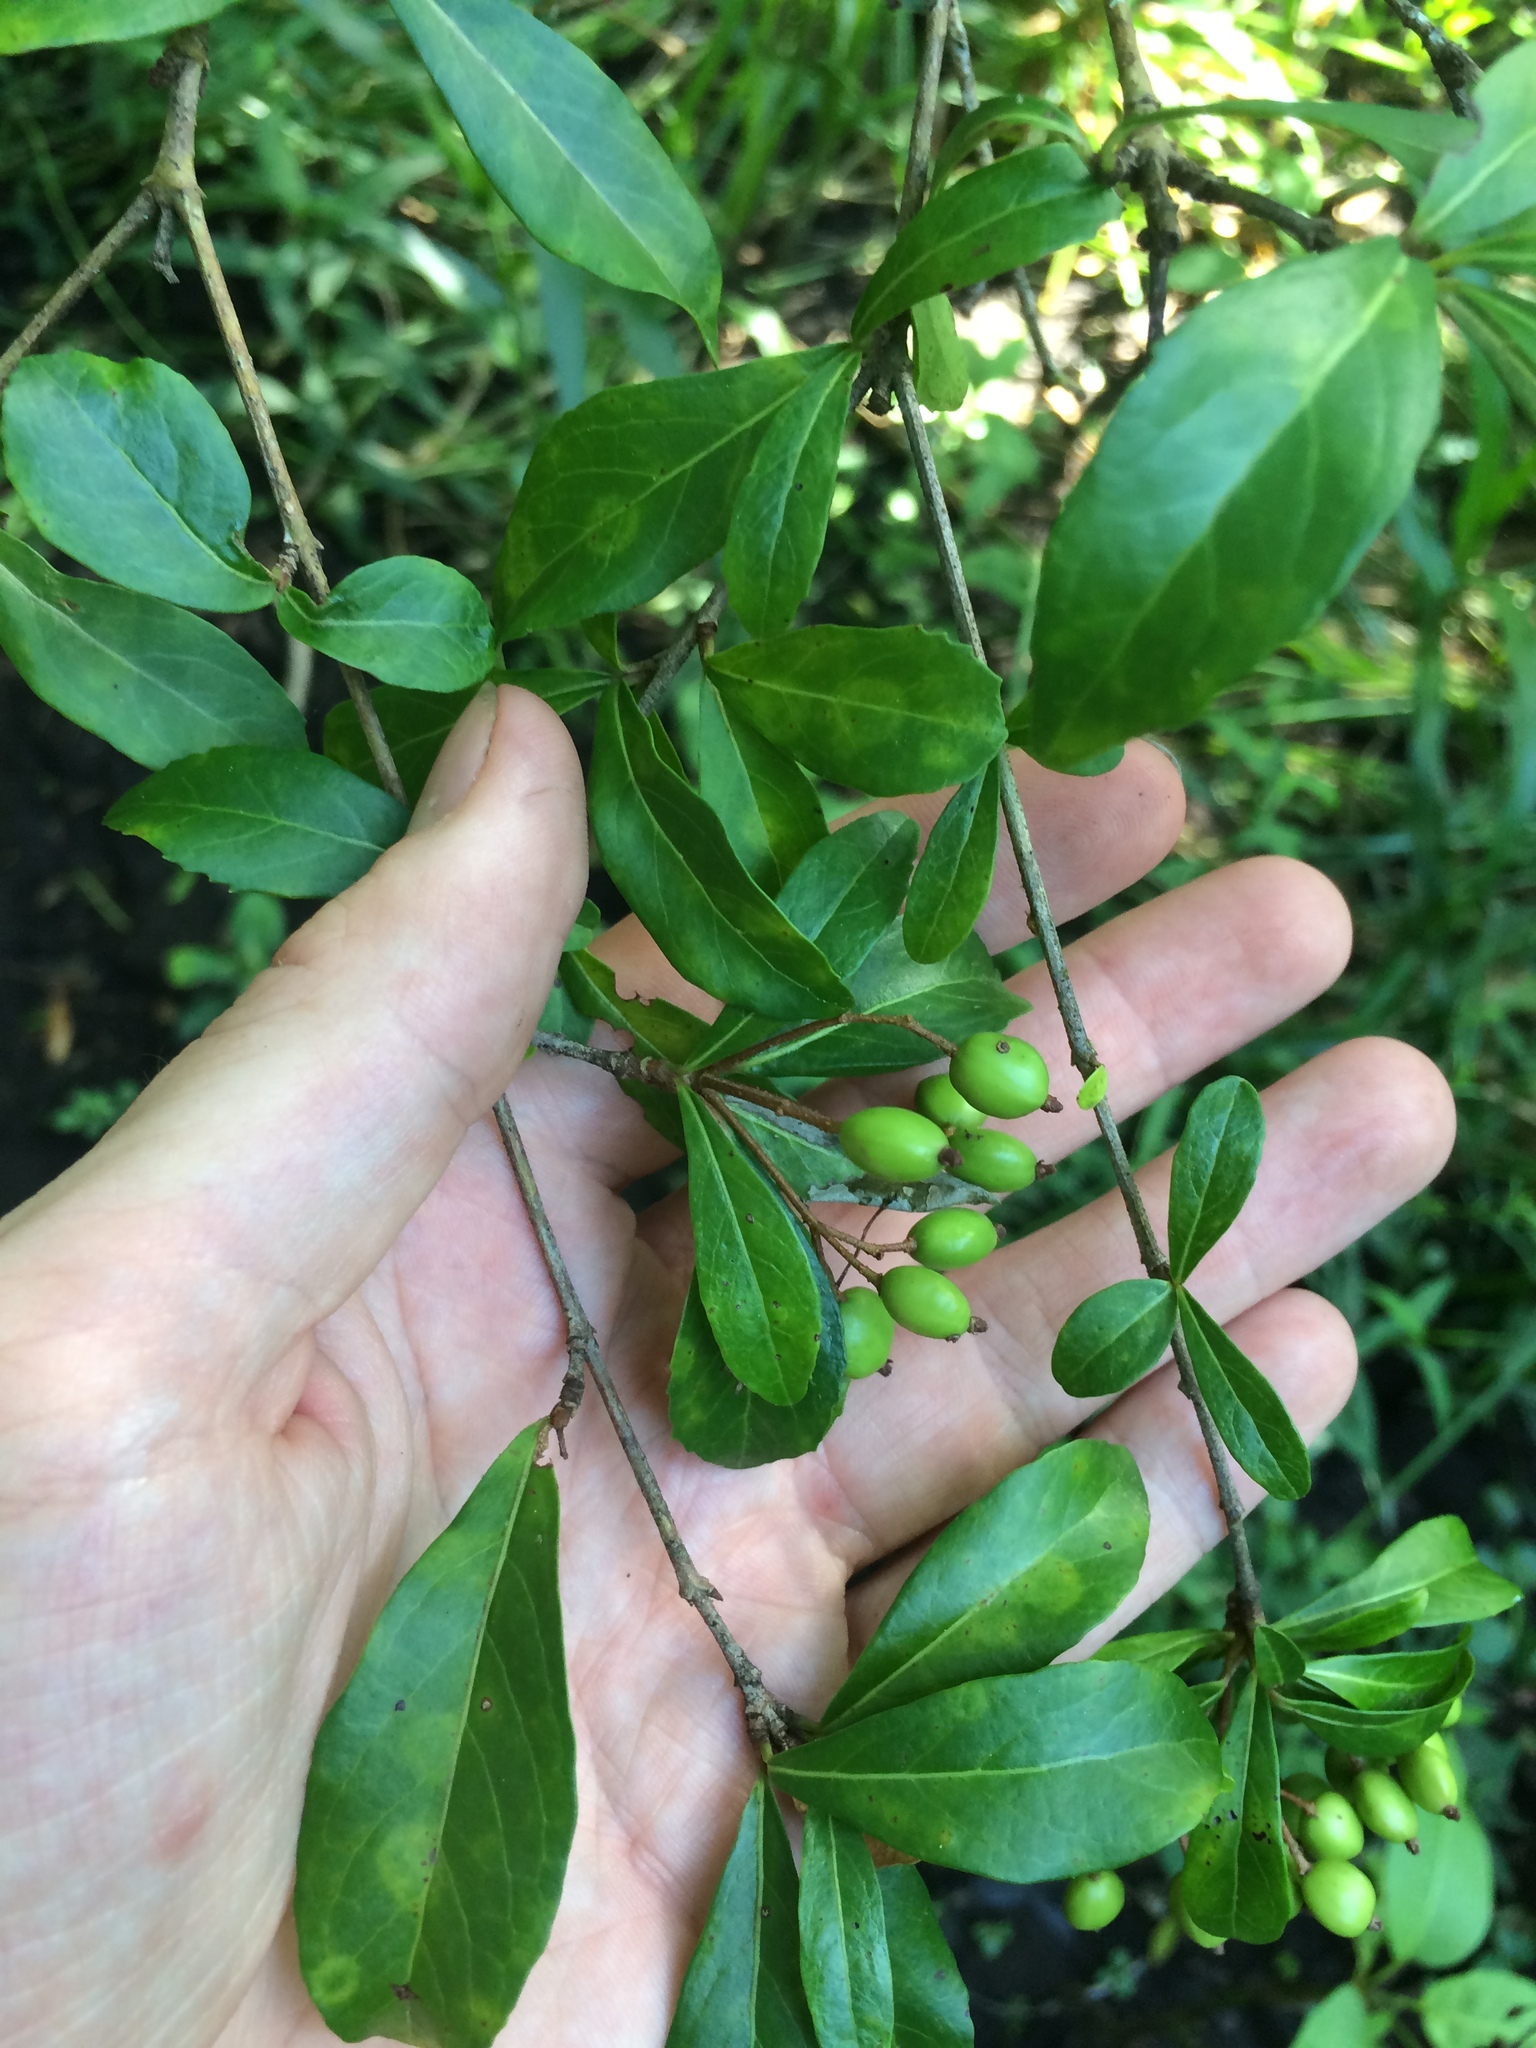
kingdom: Plantae
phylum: Tracheophyta
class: Magnoliopsida
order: Dipsacales
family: Viburnaceae
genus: Viburnum
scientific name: Viburnum obovatum
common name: Walter's viburnum
